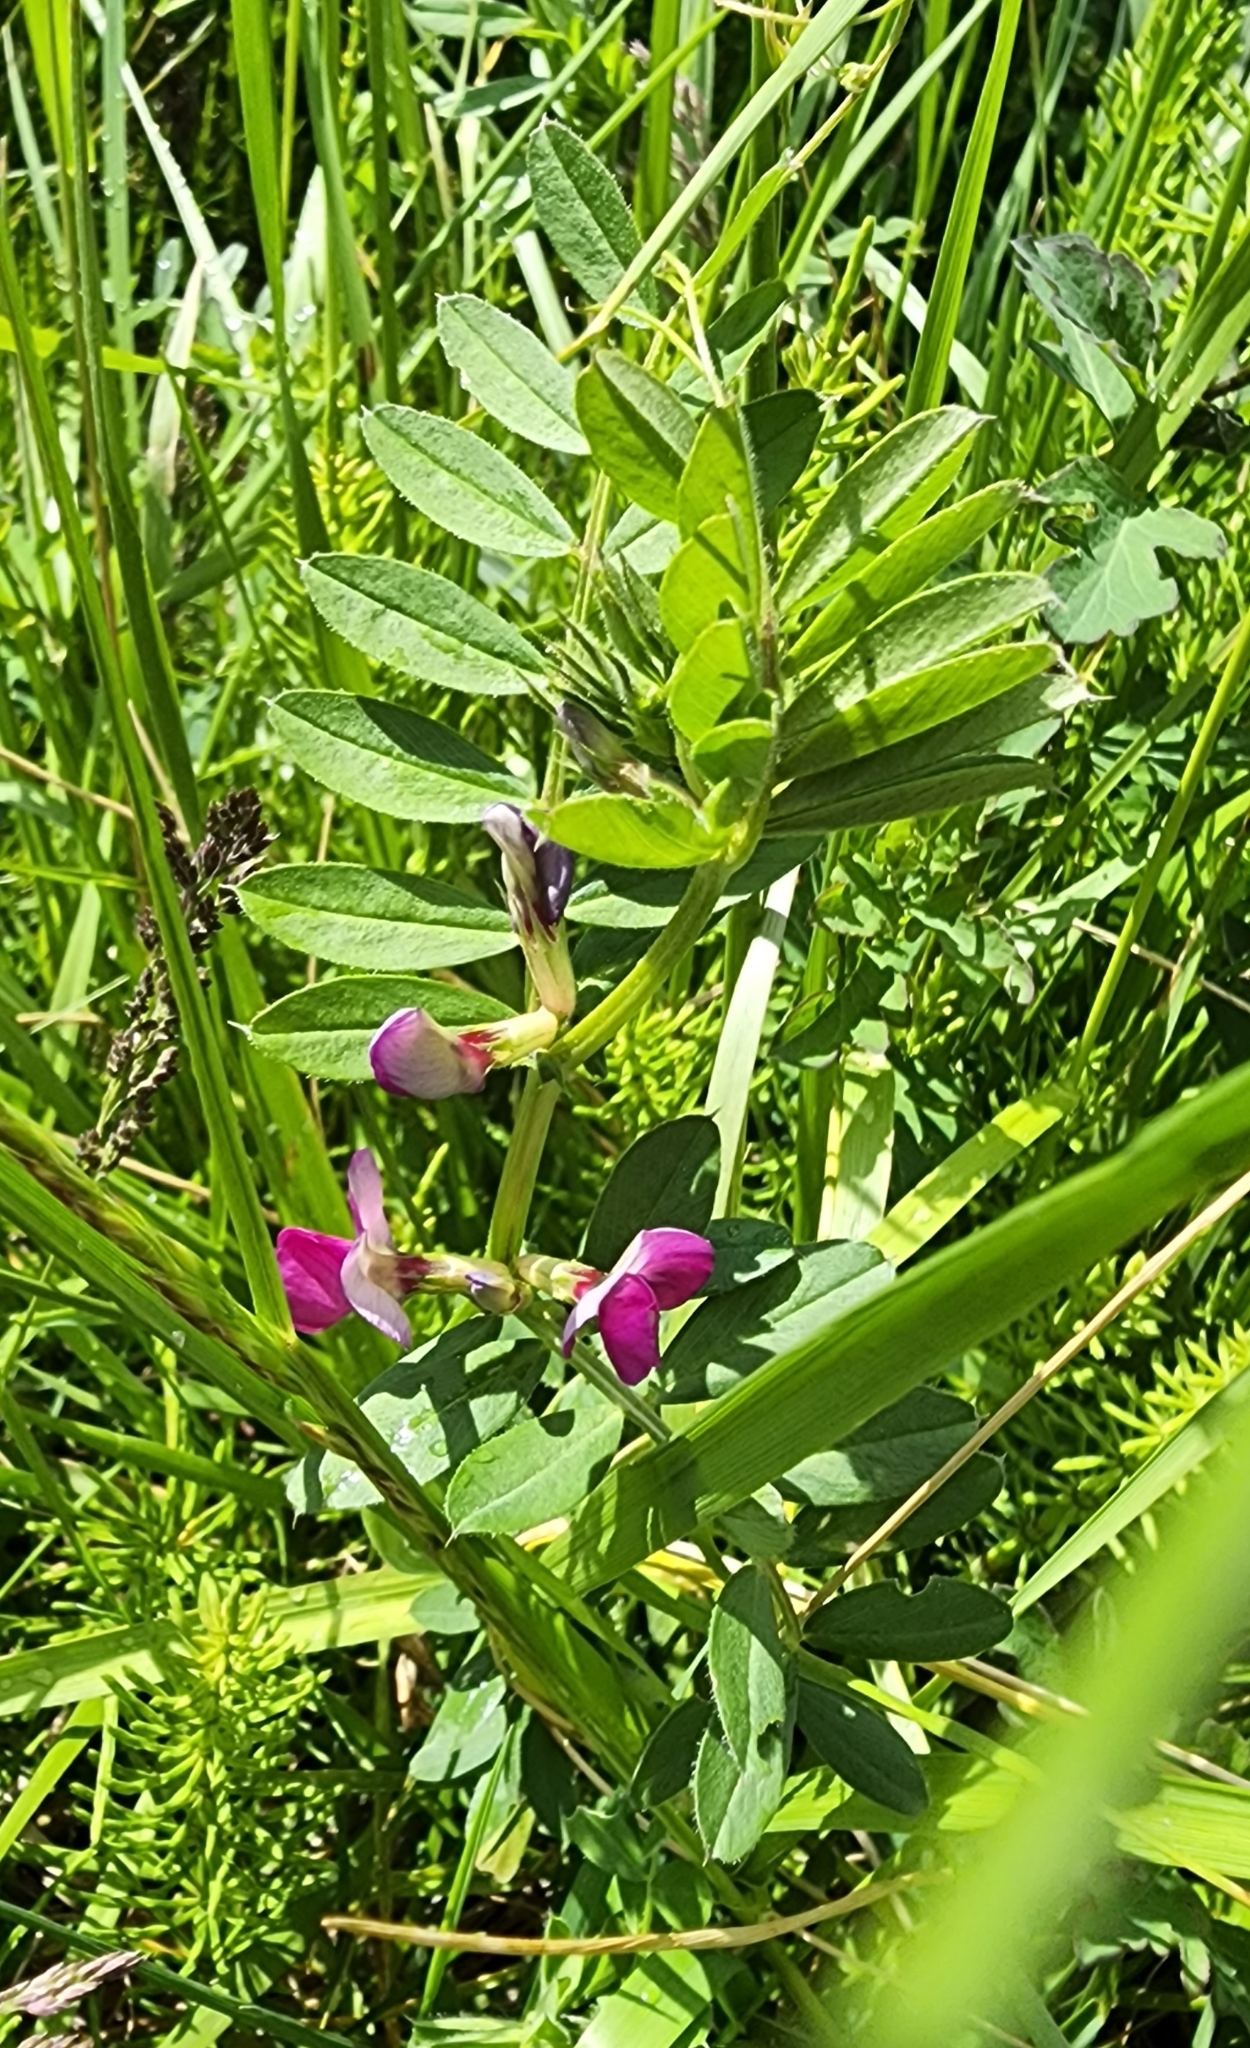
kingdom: Plantae
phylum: Tracheophyta
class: Magnoliopsida
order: Fabales
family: Fabaceae
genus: Vicia
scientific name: Vicia sativa
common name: Garden vetch
